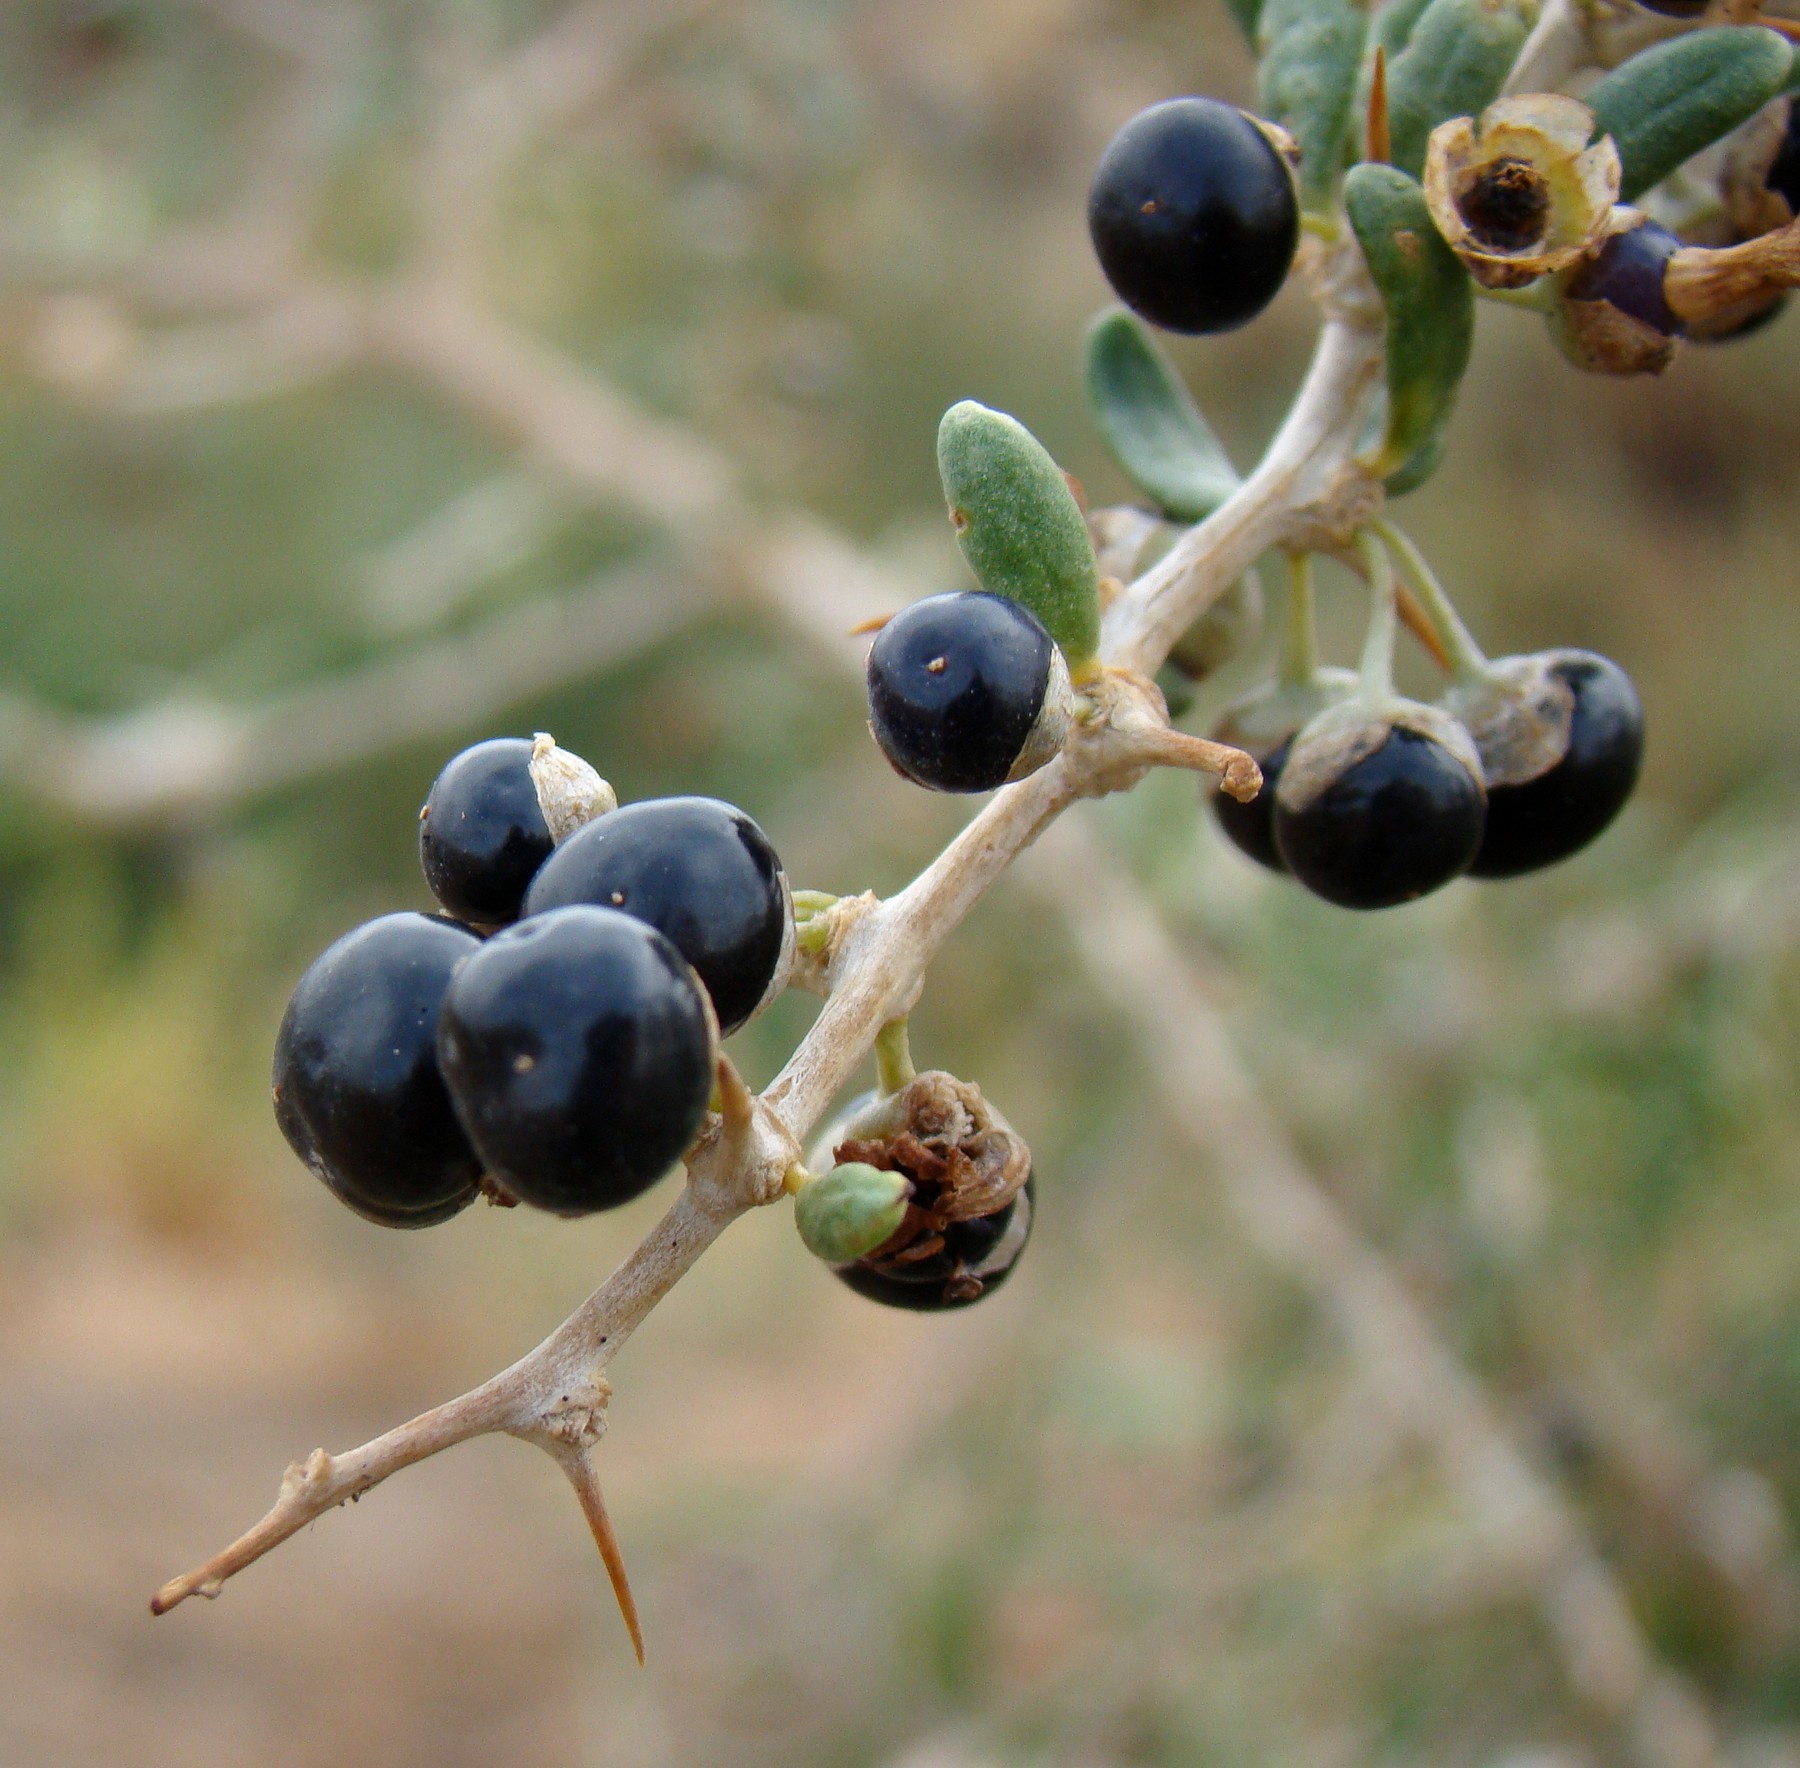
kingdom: Plantae
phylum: Tracheophyta
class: Magnoliopsida
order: Solanales
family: Solanaceae
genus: Lycium
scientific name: Lycium ruthenicum
